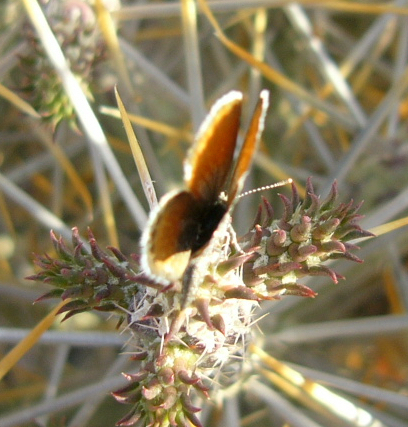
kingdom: Animalia
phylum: Arthropoda
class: Insecta
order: Lepidoptera
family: Lycaenidae
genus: Brephidium
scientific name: Brephidium exilis
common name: Pygmy blue
